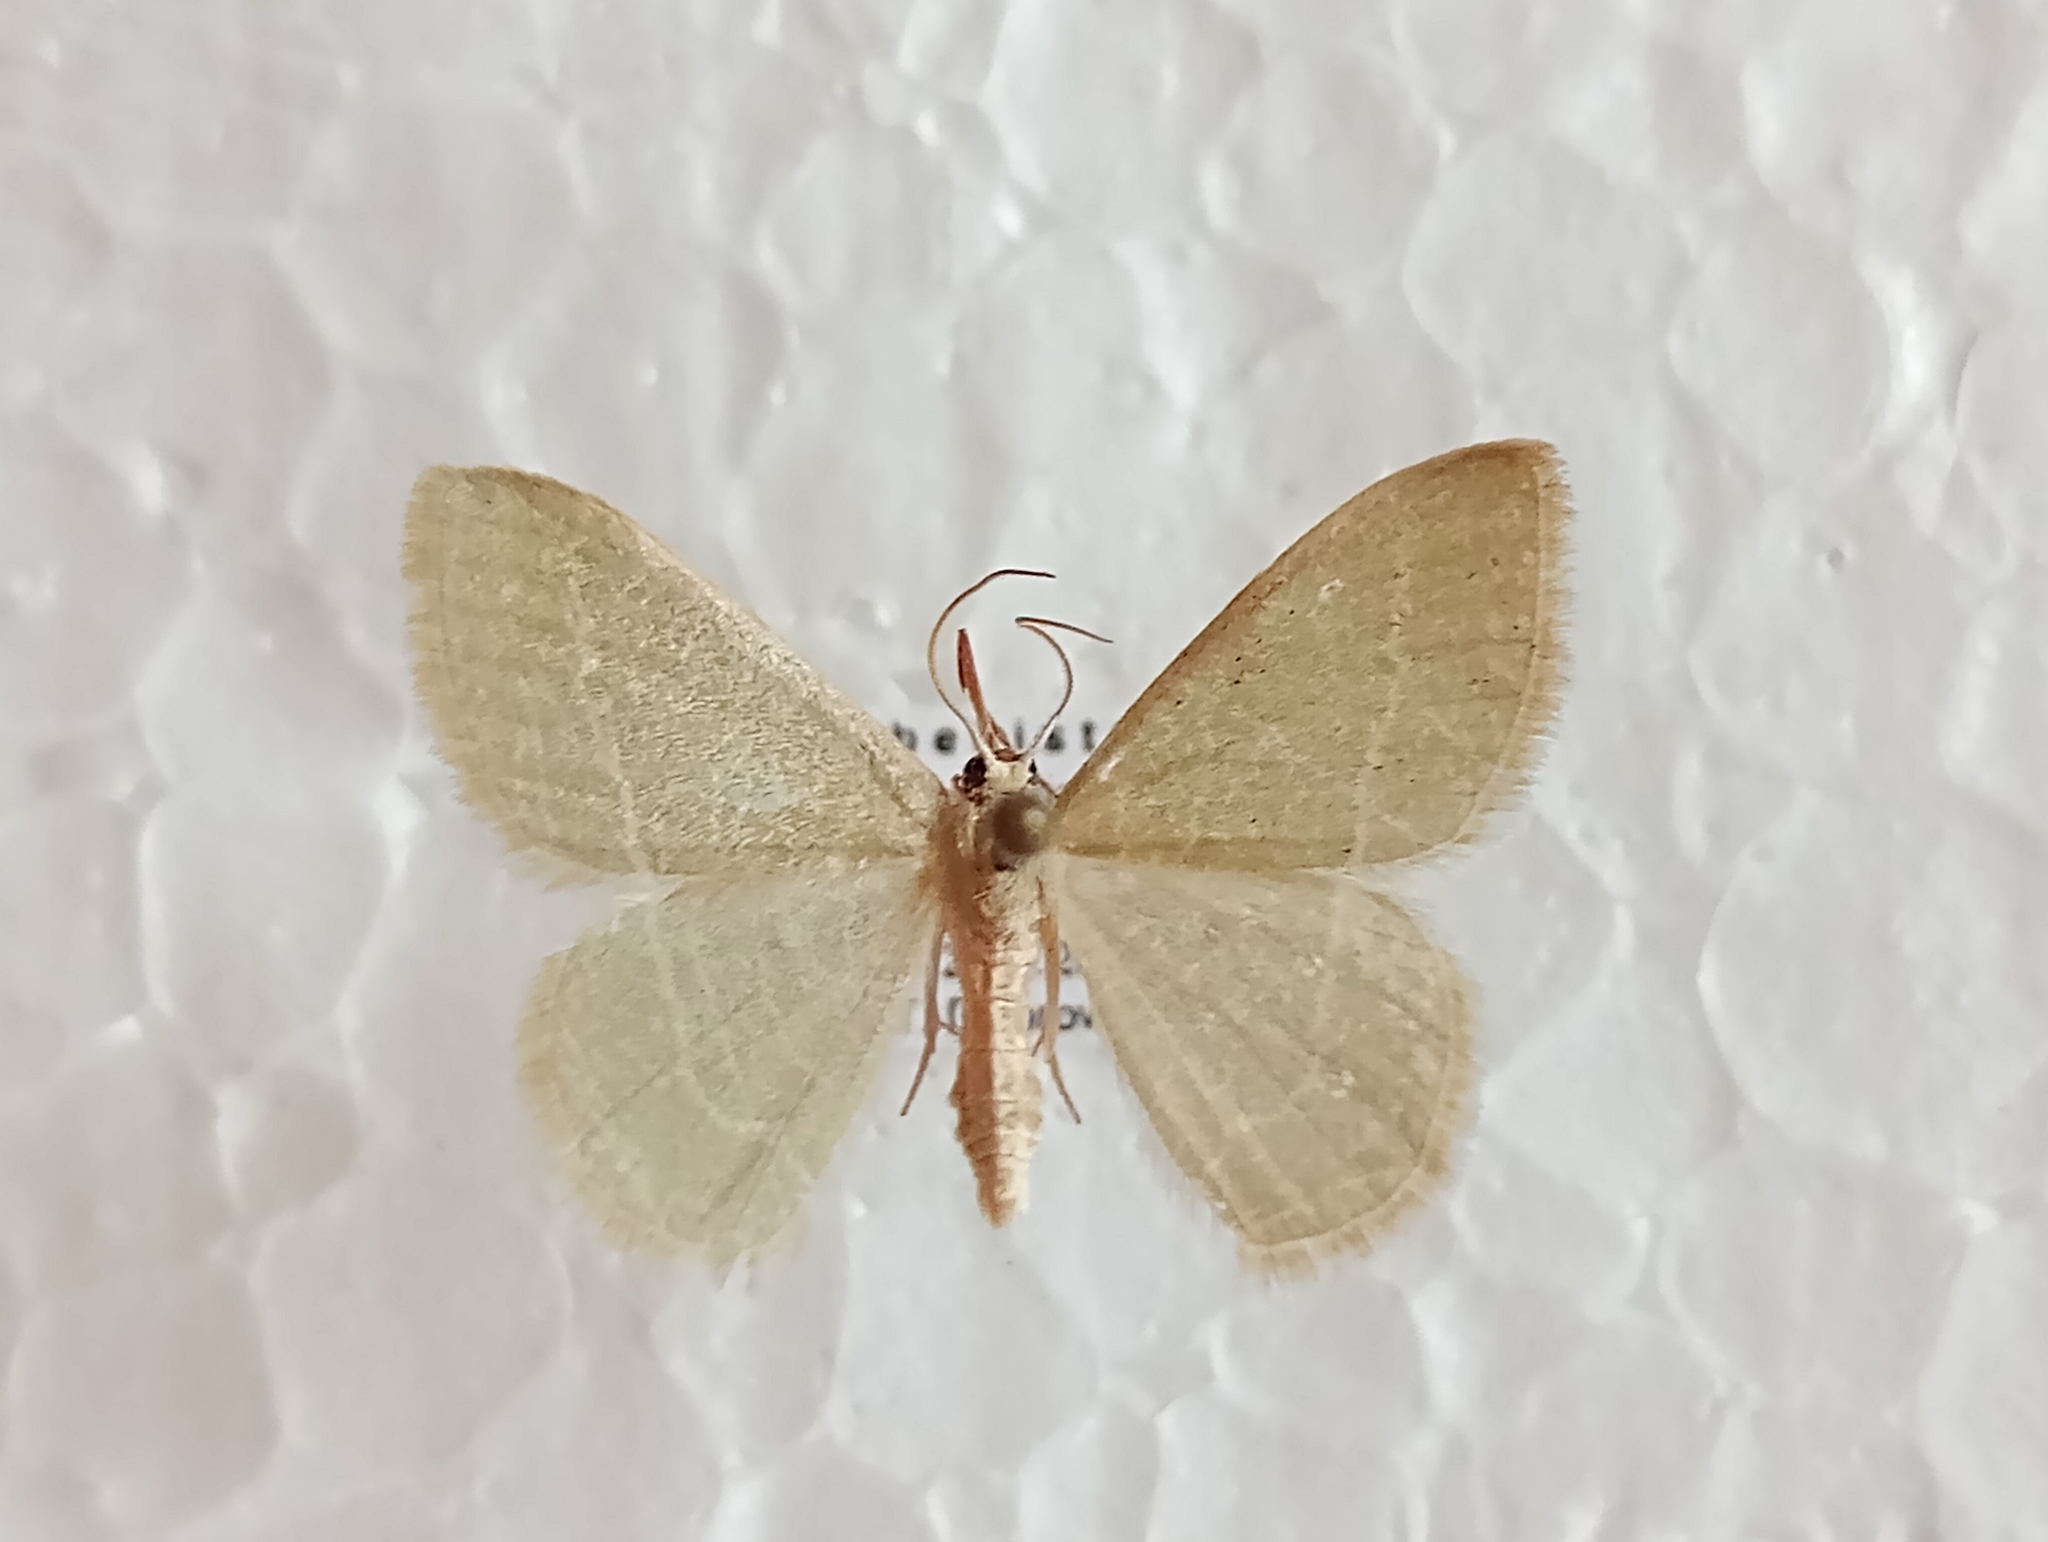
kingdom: Animalia
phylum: Arthropoda
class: Insecta
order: Lepidoptera
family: Geometridae
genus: Chlorissa
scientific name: Chlorissa etruscaria
